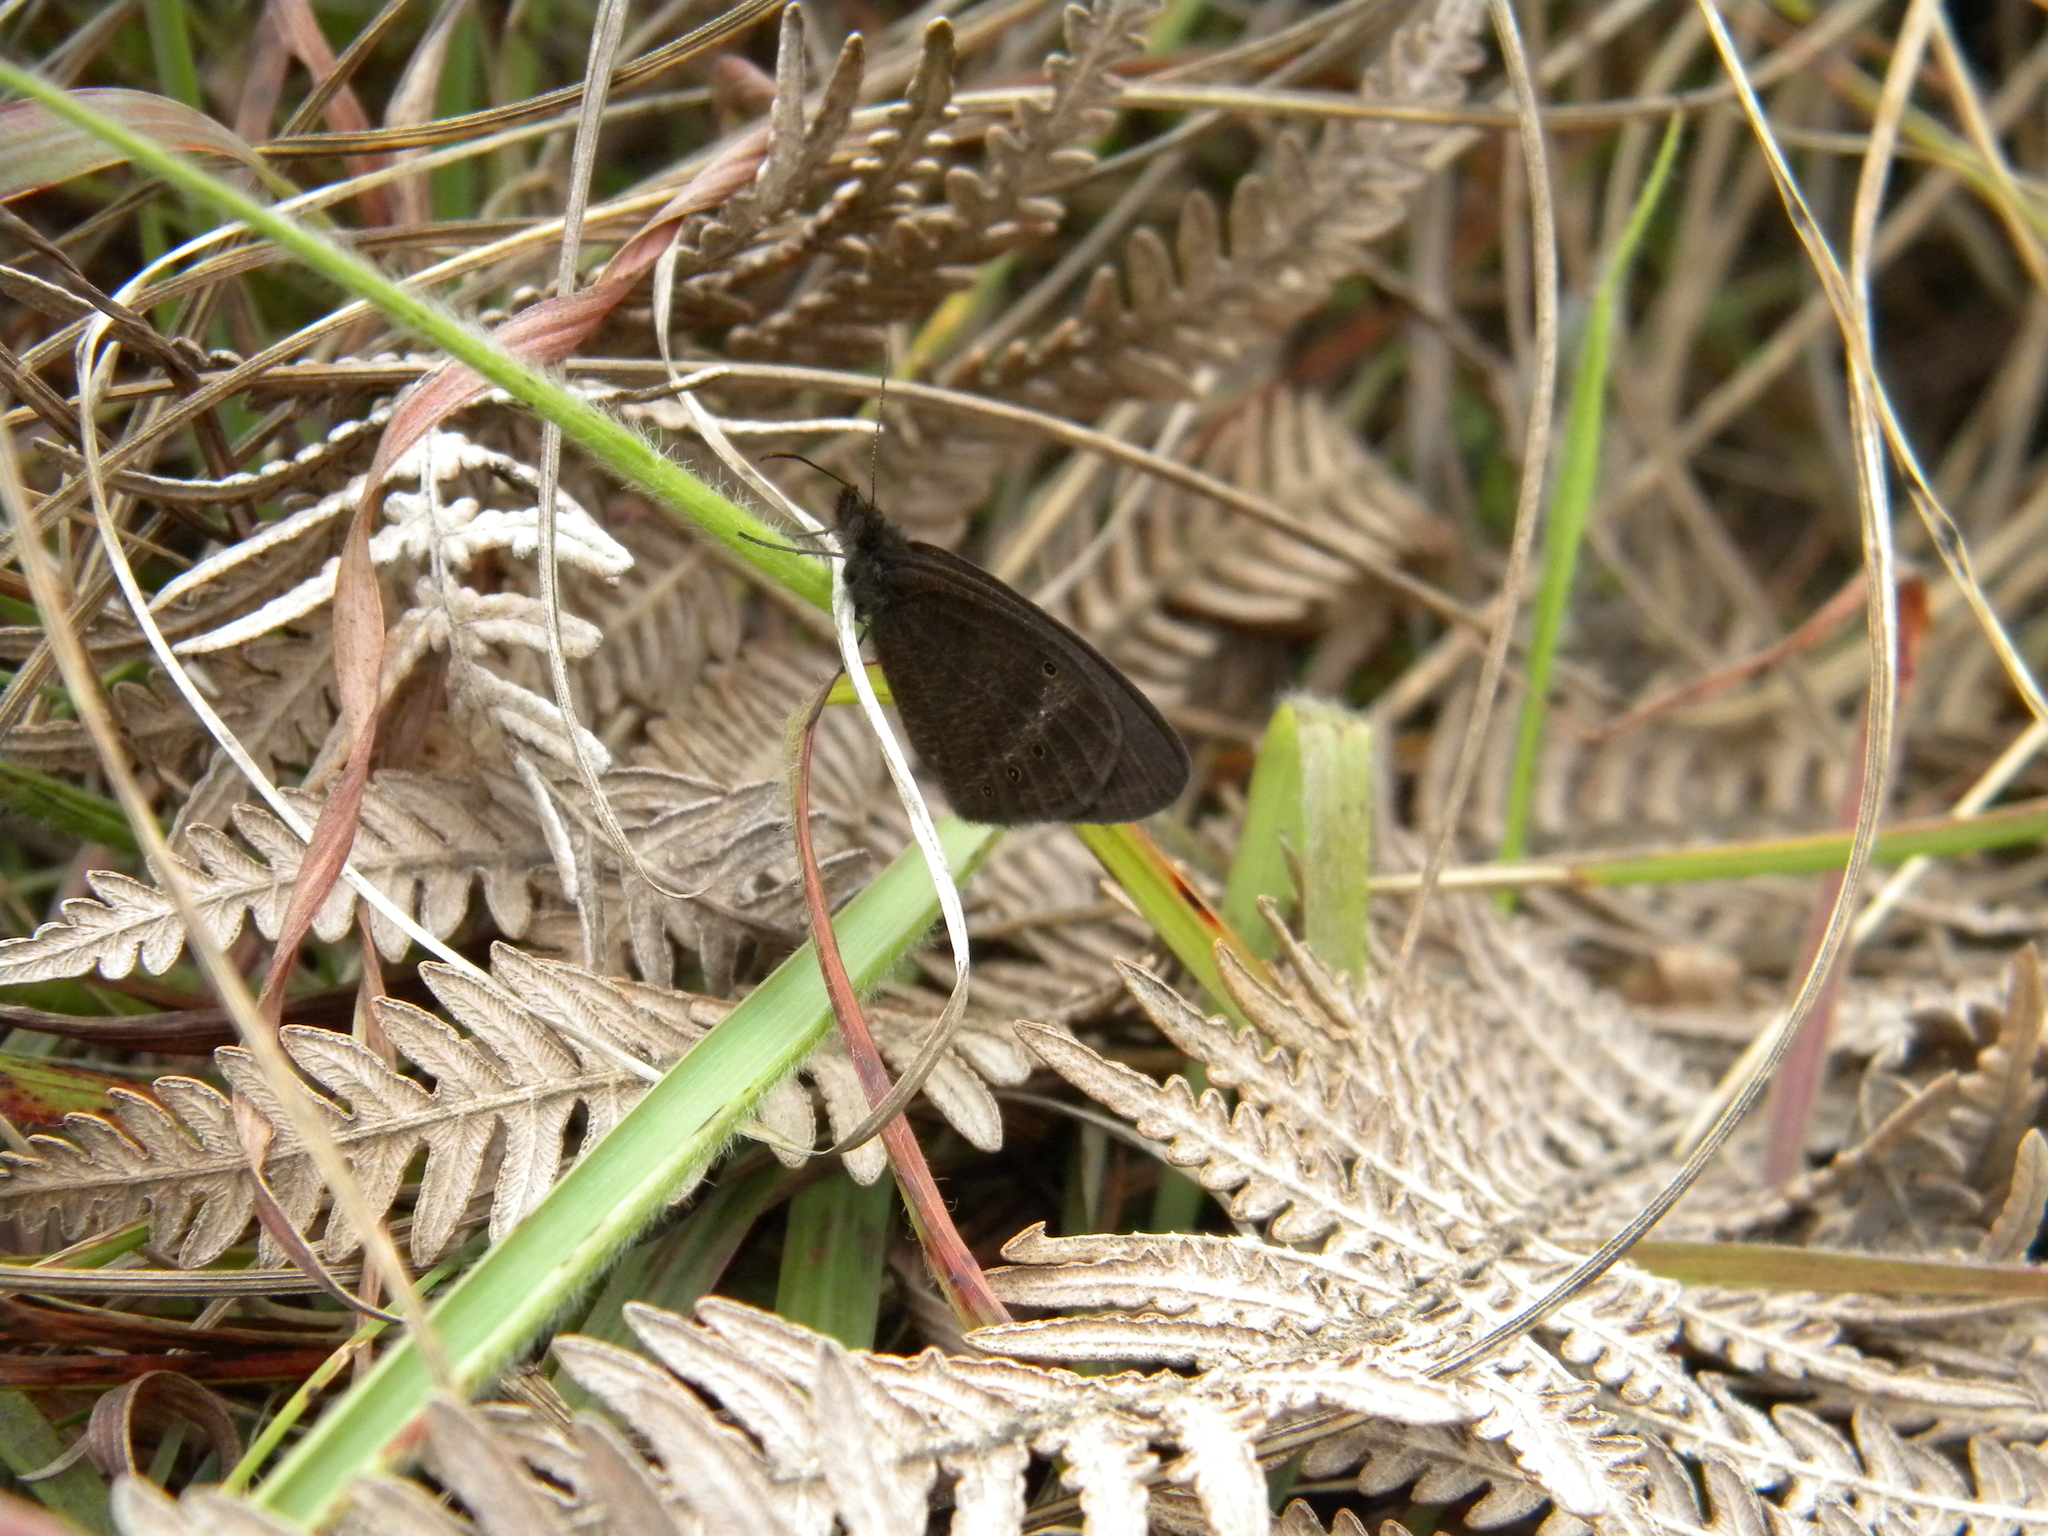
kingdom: Animalia
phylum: Arthropoda
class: Insecta
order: Lepidoptera
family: Nymphalidae
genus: Ypthima
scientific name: Ypthima ypthimoides
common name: Palni four-ring
